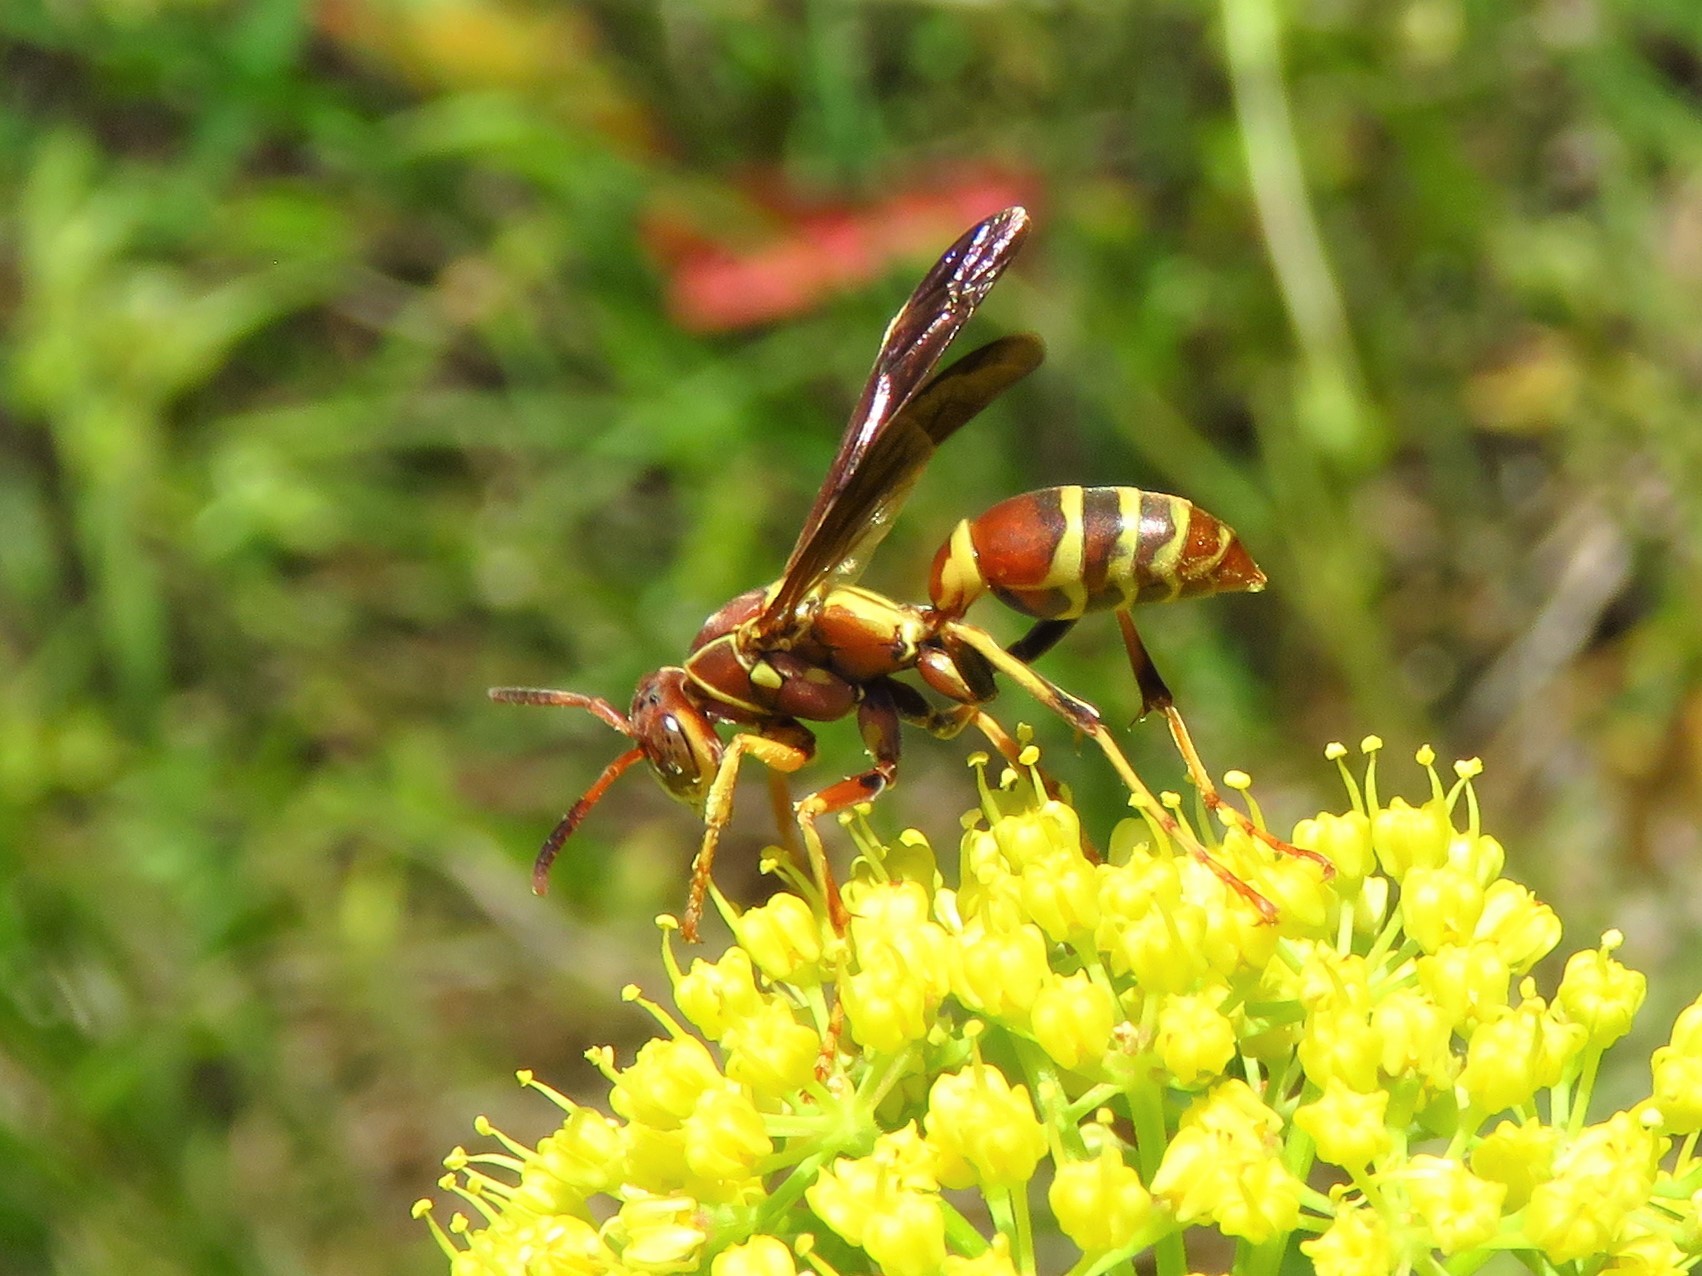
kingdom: Animalia
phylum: Arthropoda
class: Insecta
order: Hymenoptera
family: Eumenidae
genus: Polistes
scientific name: Polistes dorsalis
